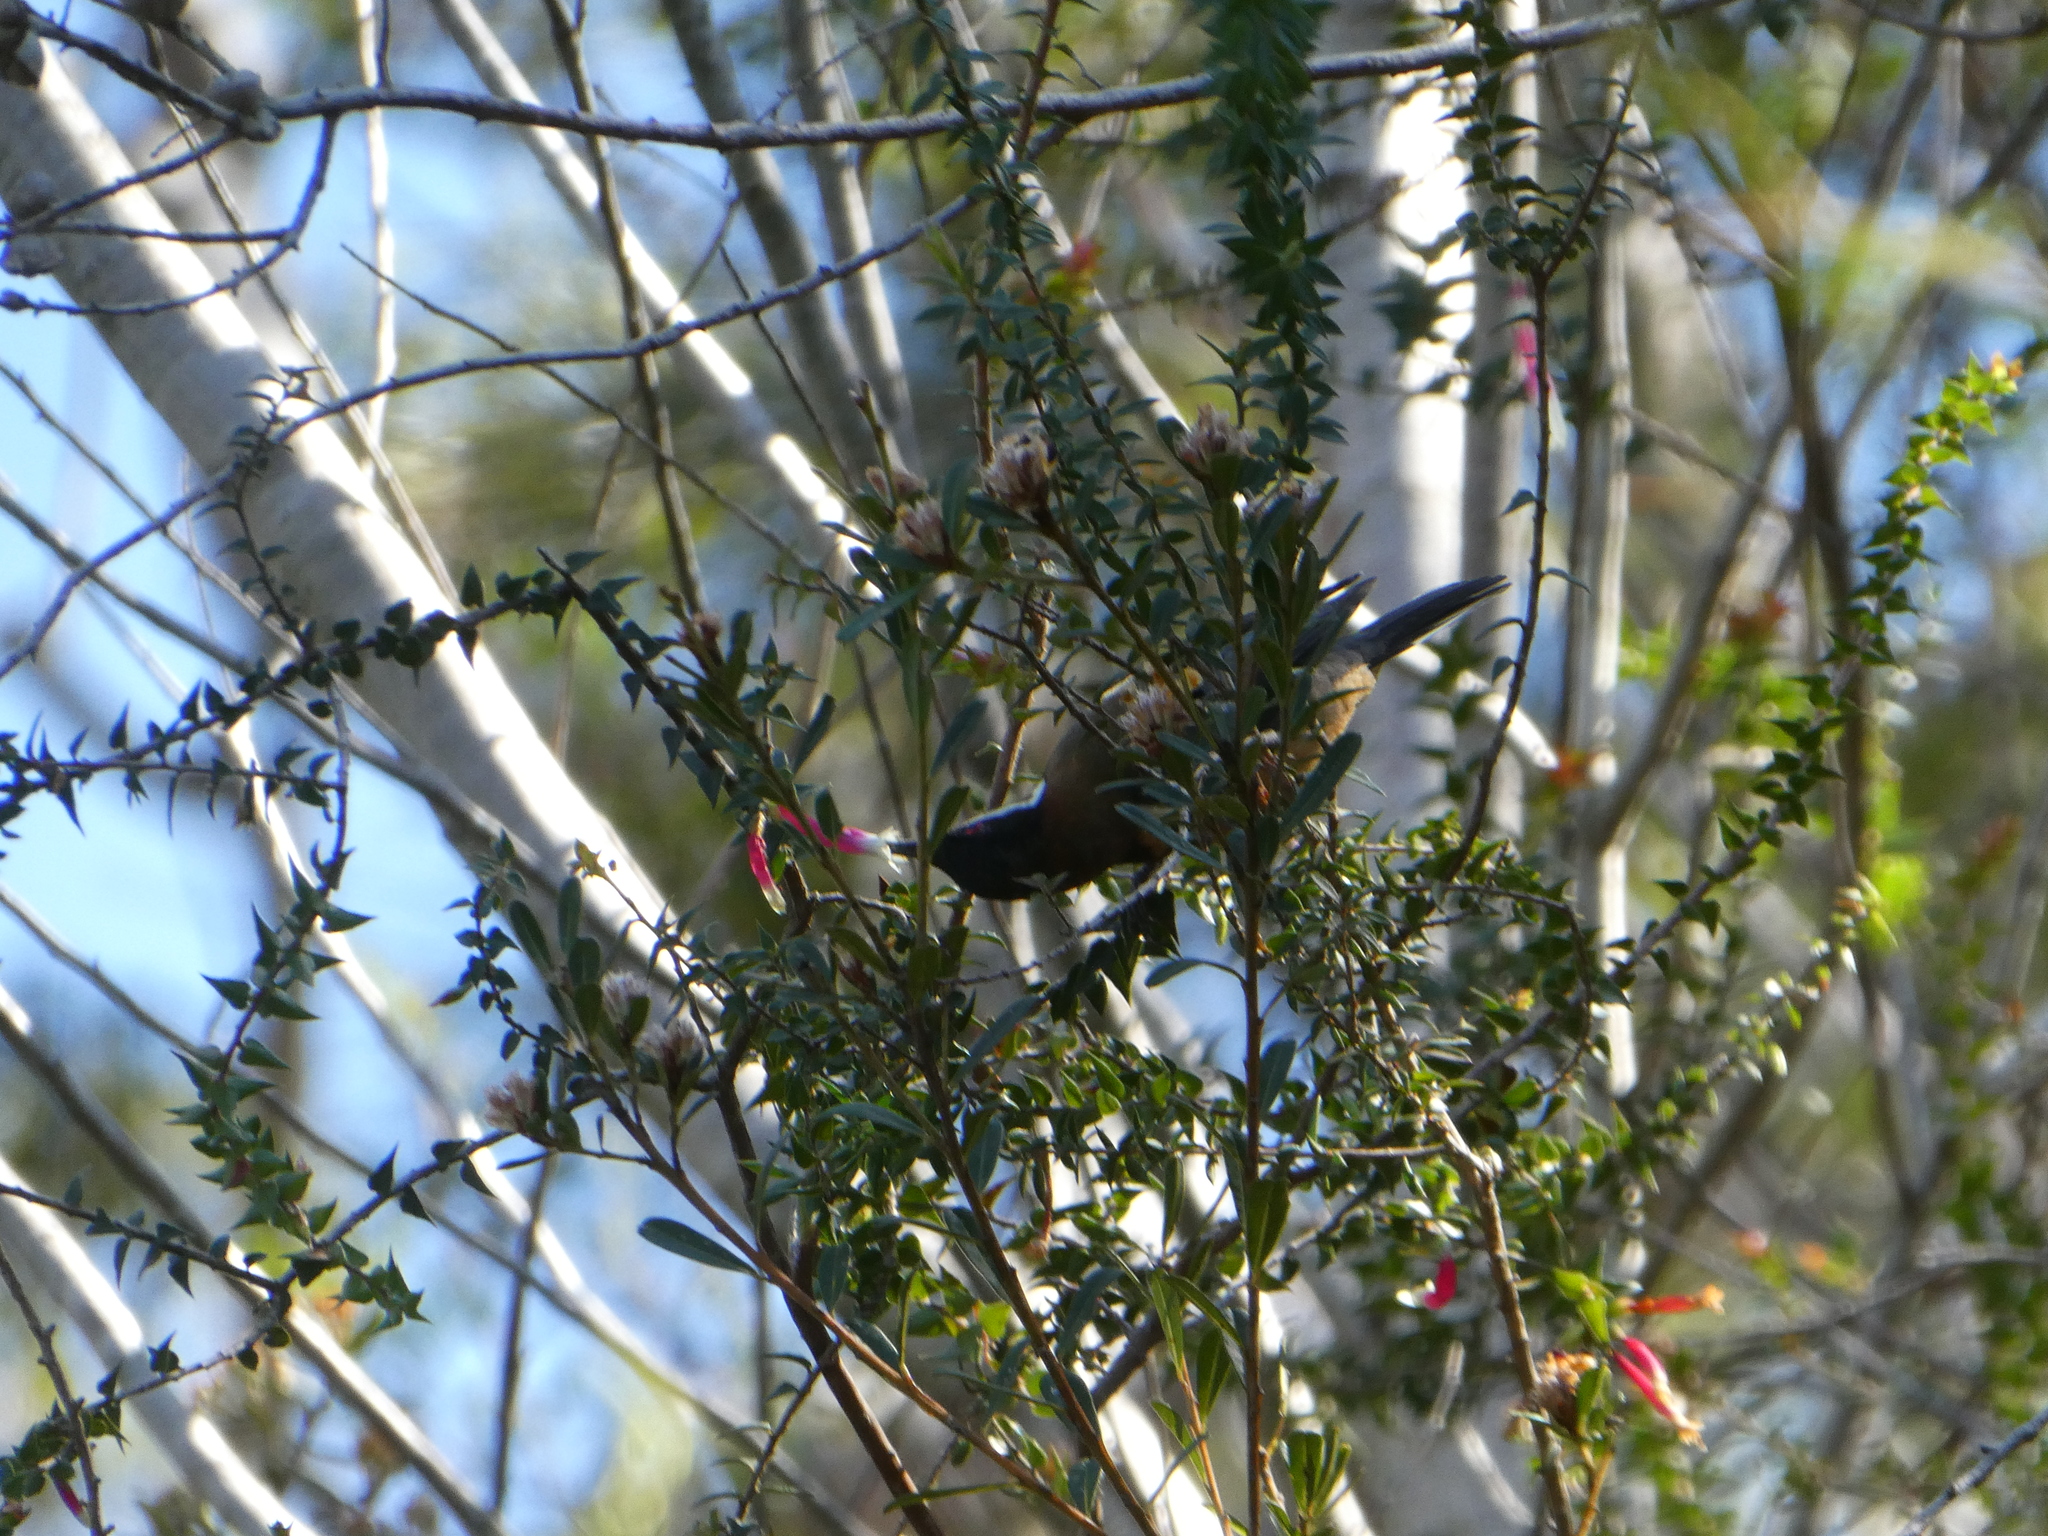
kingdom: Animalia
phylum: Chordata
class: Aves
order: Passeriformes
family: Meliphagidae
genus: Acanthorhynchus
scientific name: Acanthorhynchus tenuirostris
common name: Eastern spinebill
